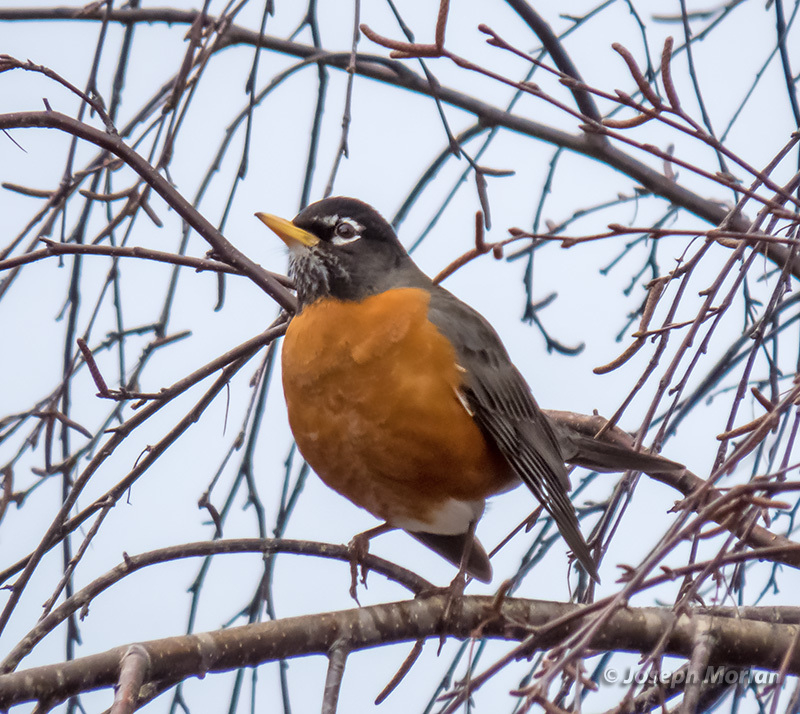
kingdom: Animalia
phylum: Chordata
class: Aves
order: Passeriformes
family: Turdidae
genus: Turdus
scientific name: Turdus migratorius
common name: American robin
